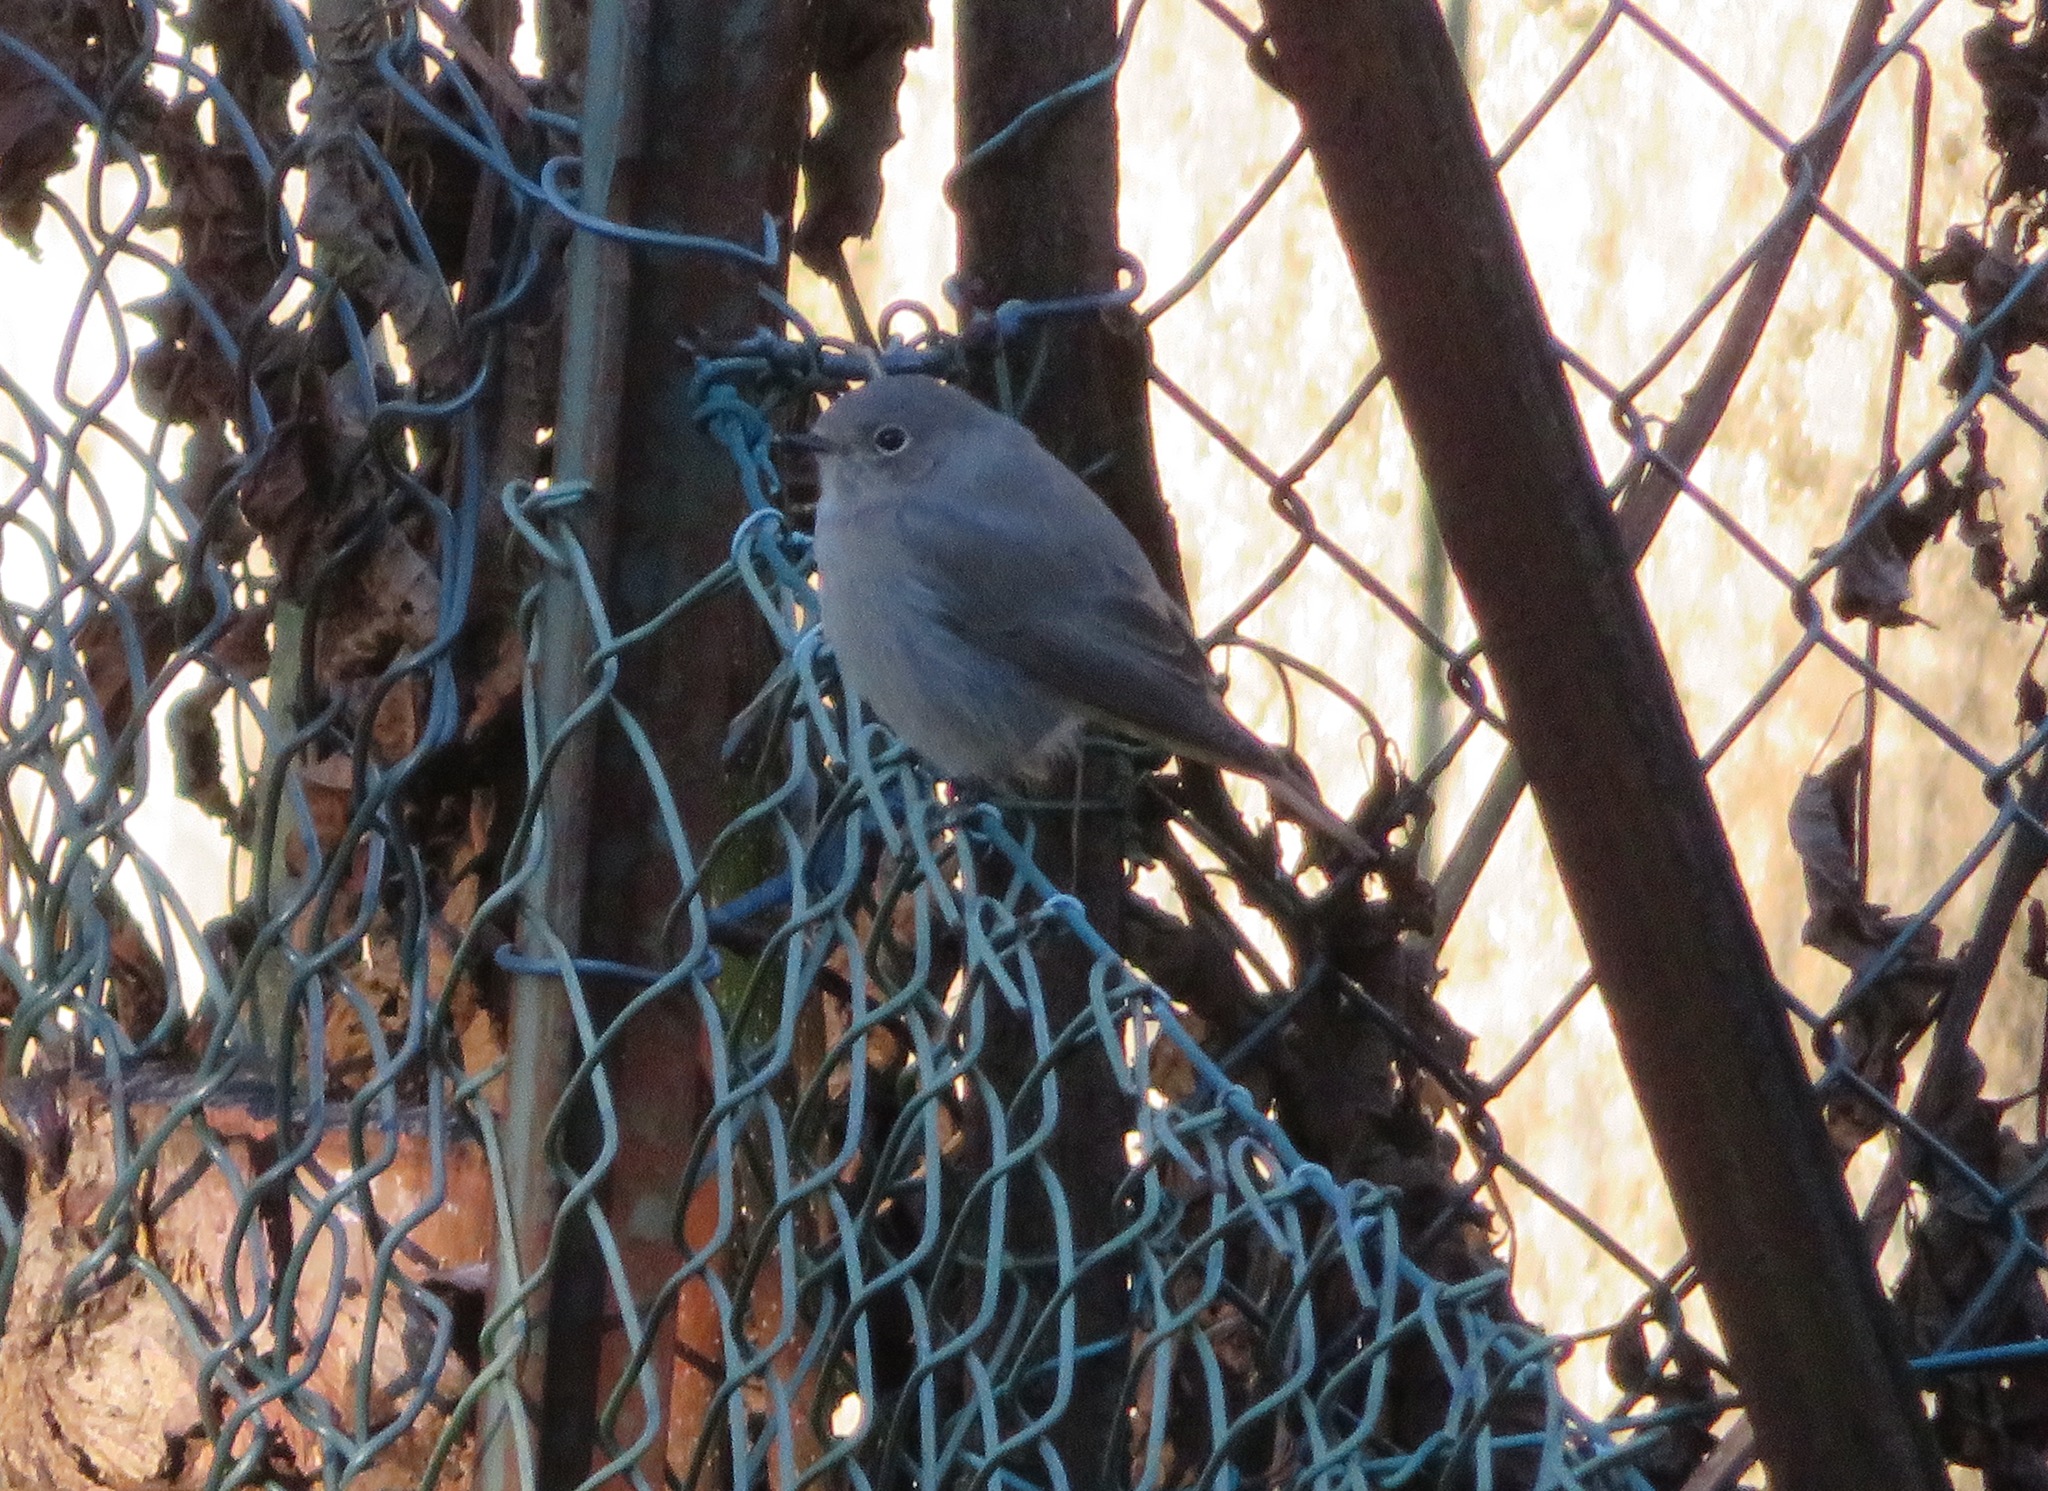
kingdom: Animalia
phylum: Chordata
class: Aves
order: Passeriformes
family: Muscicapidae
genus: Phoenicurus
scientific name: Phoenicurus ochruros
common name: Black redstart
